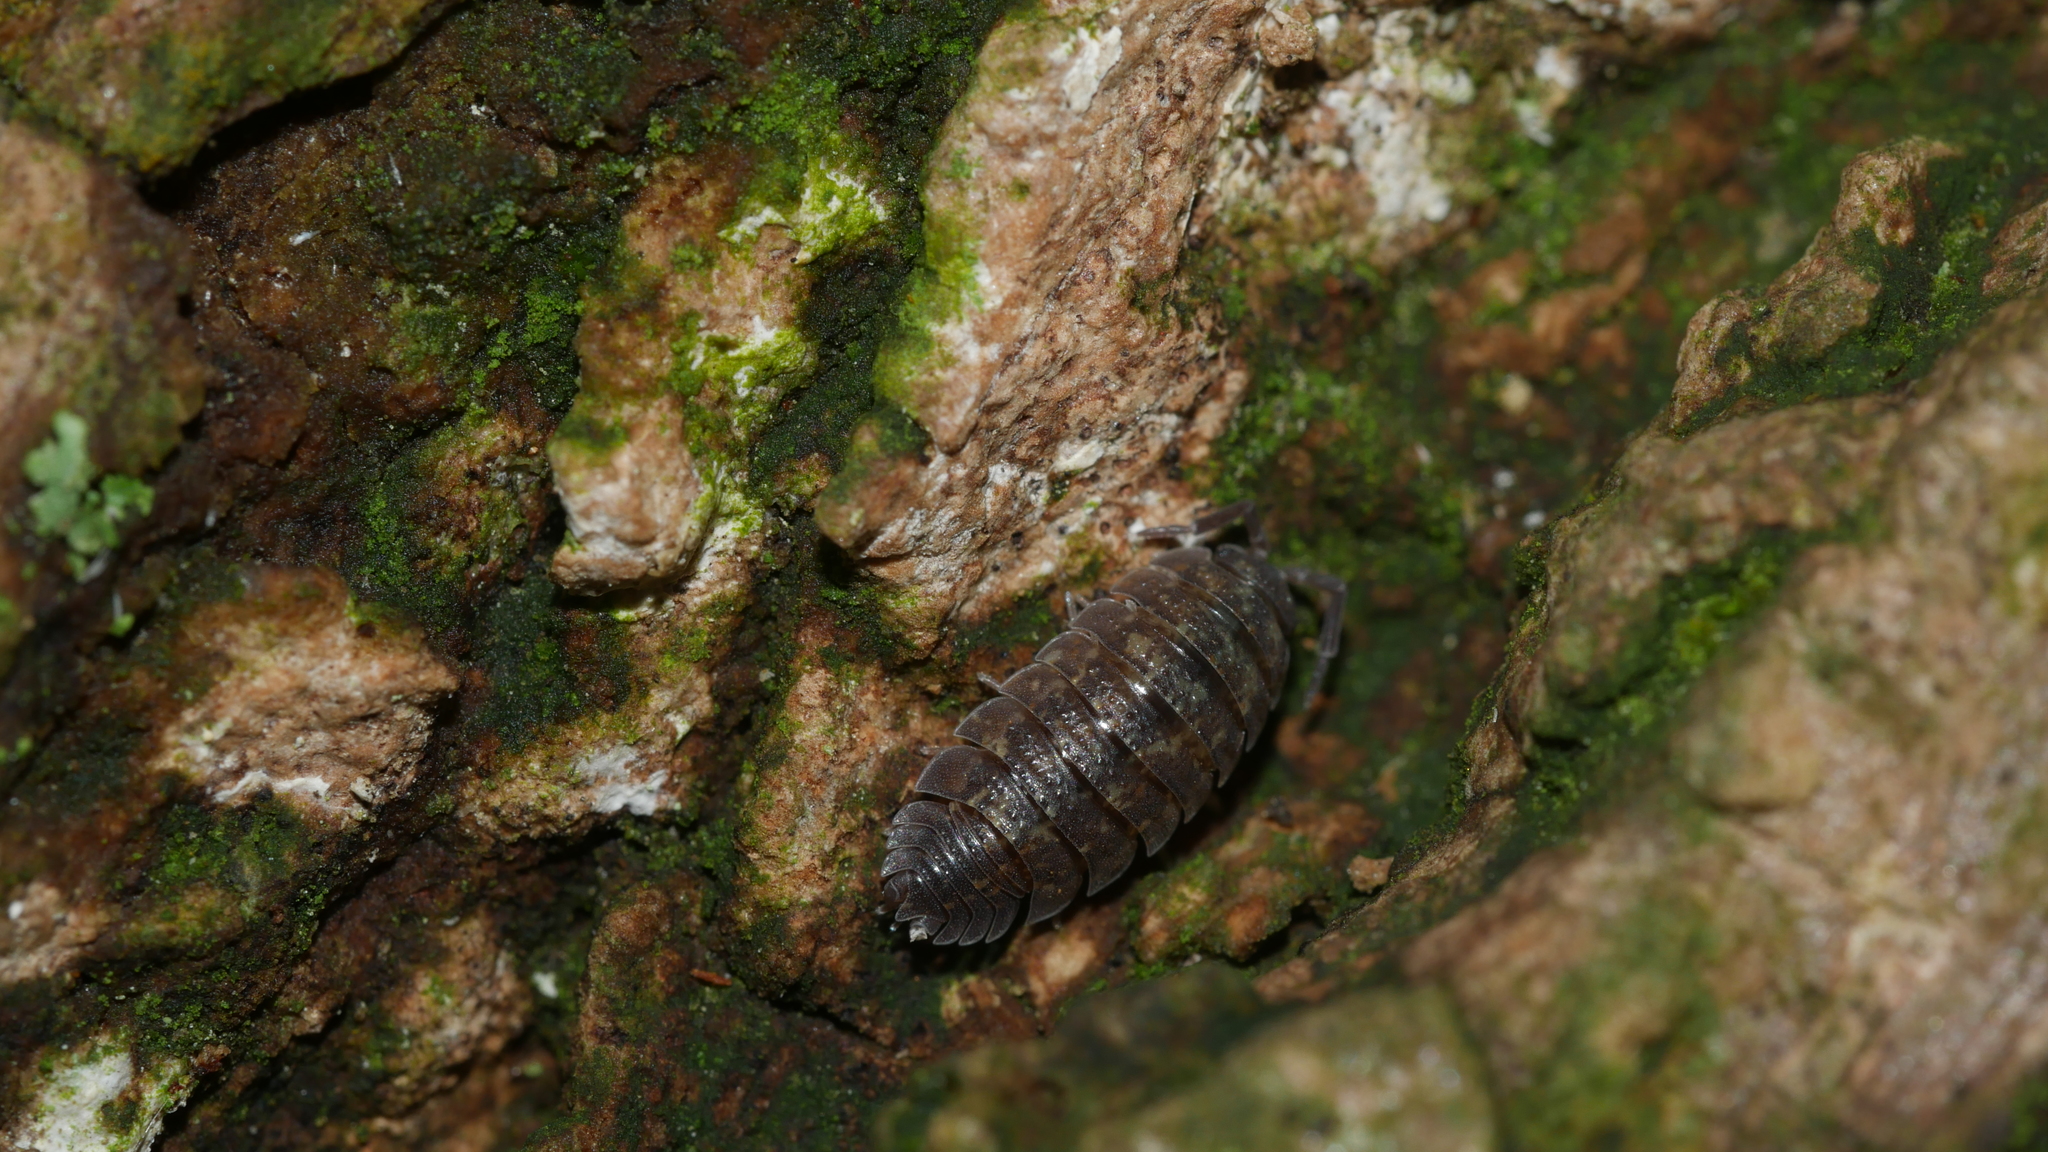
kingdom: Animalia
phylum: Arthropoda
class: Malacostraca
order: Isopoda
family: Porcellionidae
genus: Porcellio
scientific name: Porcellio scaber
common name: Common rough woodlouse
